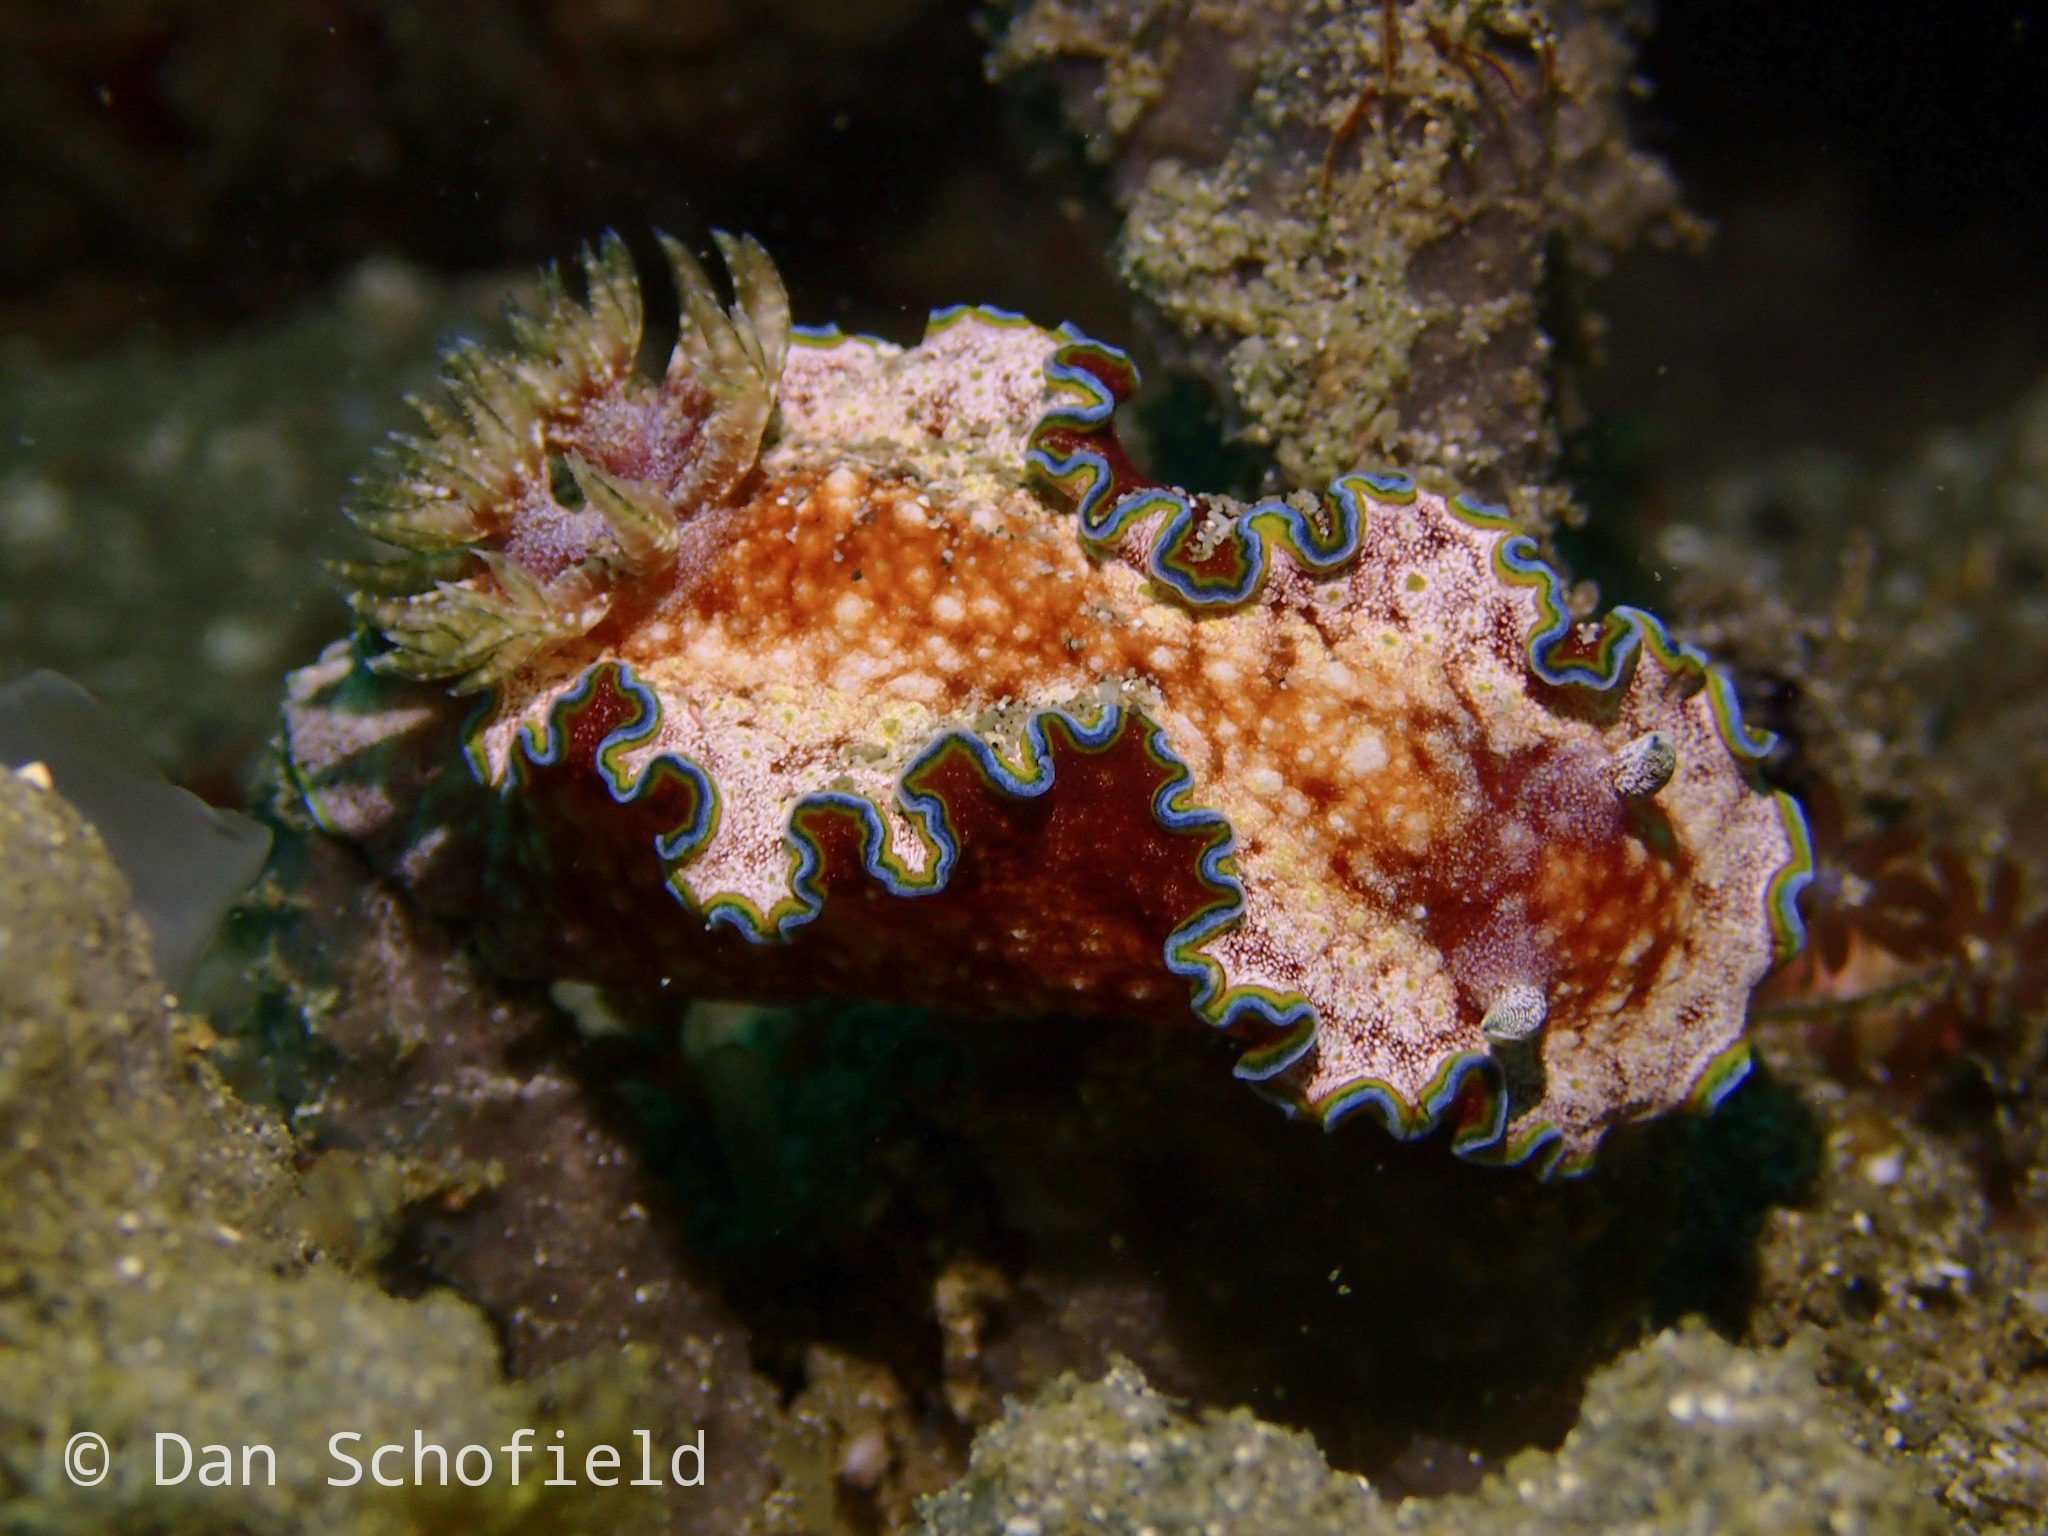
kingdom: Animalia
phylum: Mollusca
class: Gastropoda
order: Nudibranchia
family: Chromodorididae
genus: Glossodoris
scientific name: Glossodoris acosti
